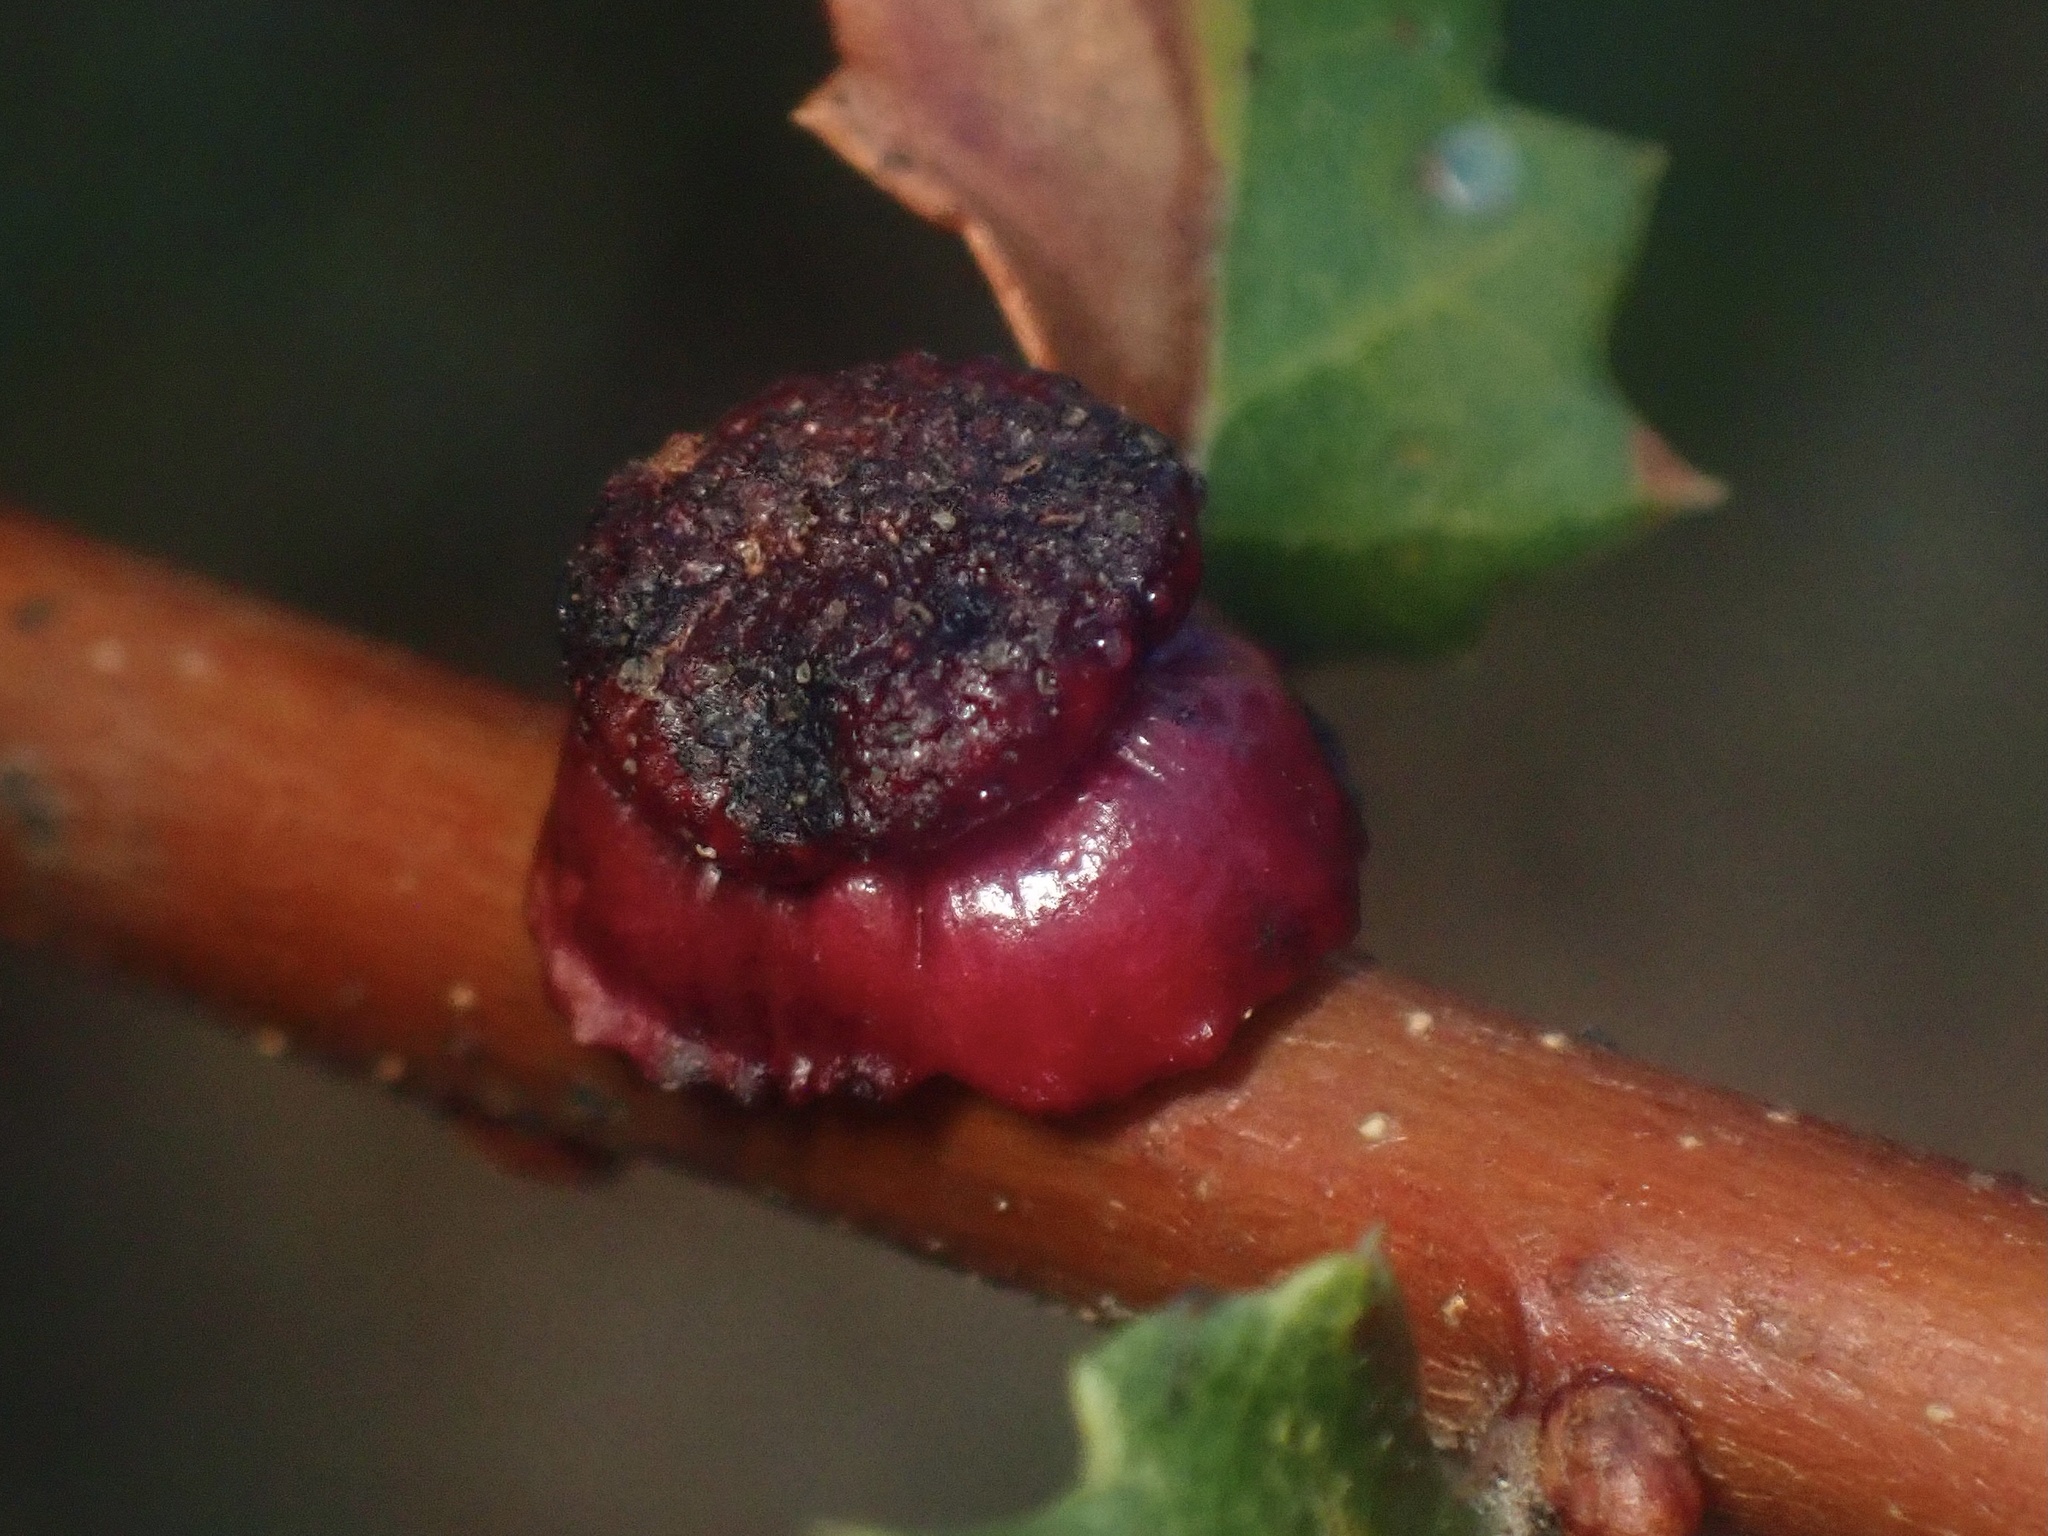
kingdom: Animalia
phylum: Arthropoda
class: Insecta
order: Hymenoptera
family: Cynipidae
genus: Disholcaspis
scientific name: Disholcaspis prehensa
